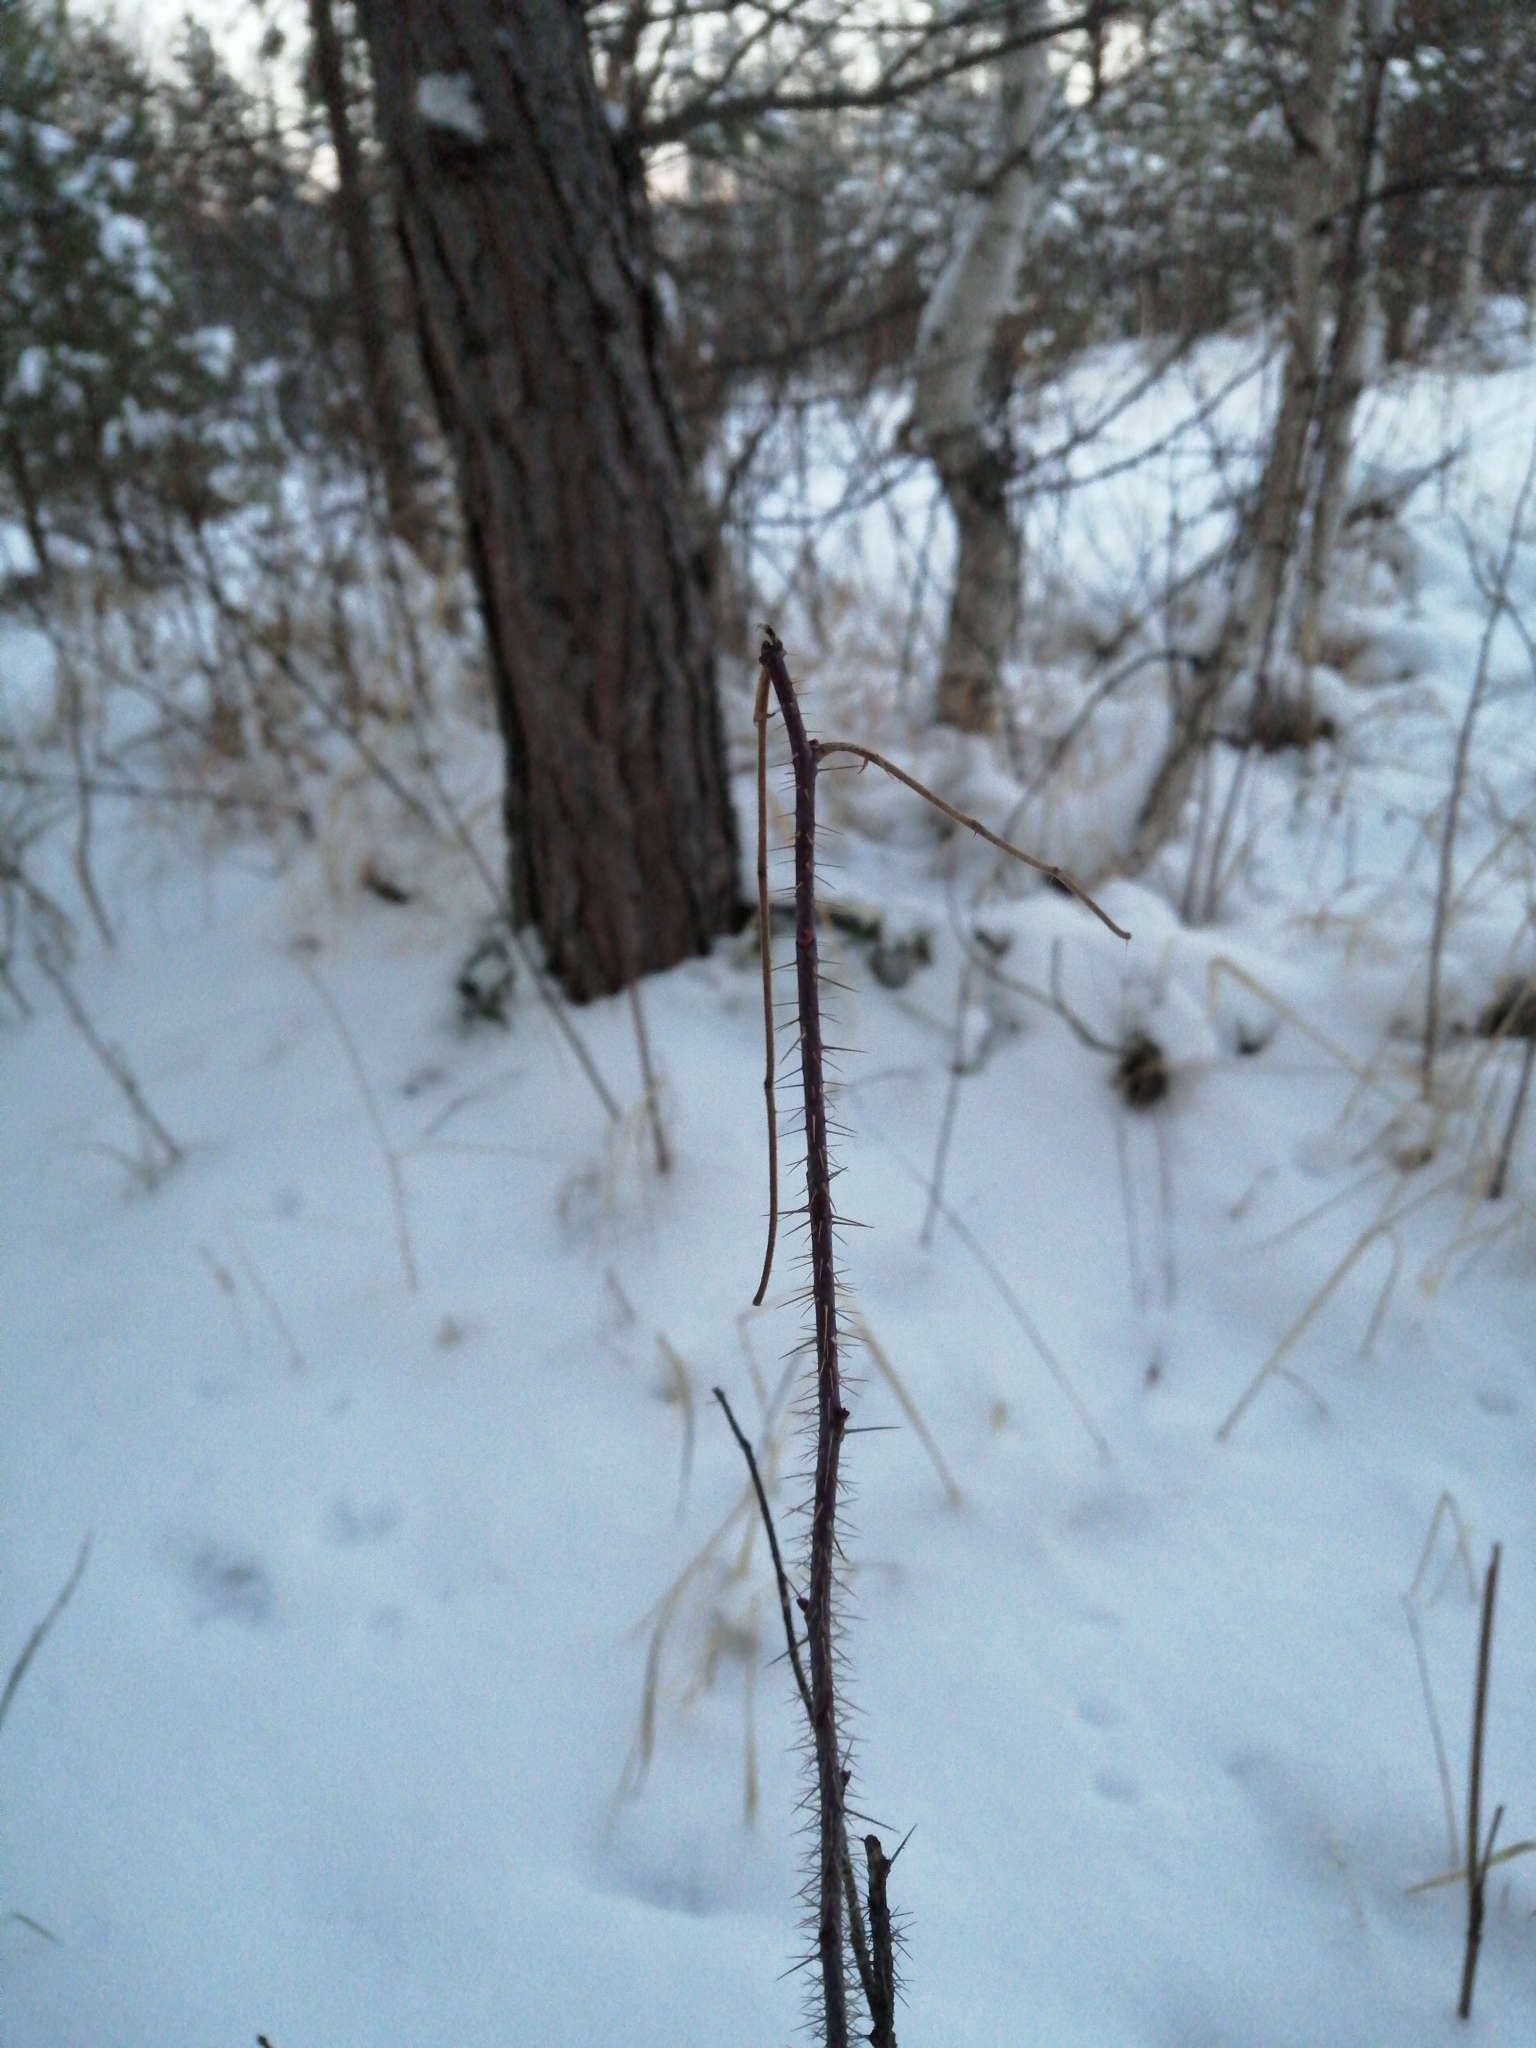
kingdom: Plantae
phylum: Tracheophyta
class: Magnoliopsida
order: Rosales
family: Rosaceae
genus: Rosa
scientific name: Rosa acicularis
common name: Prickly rose
